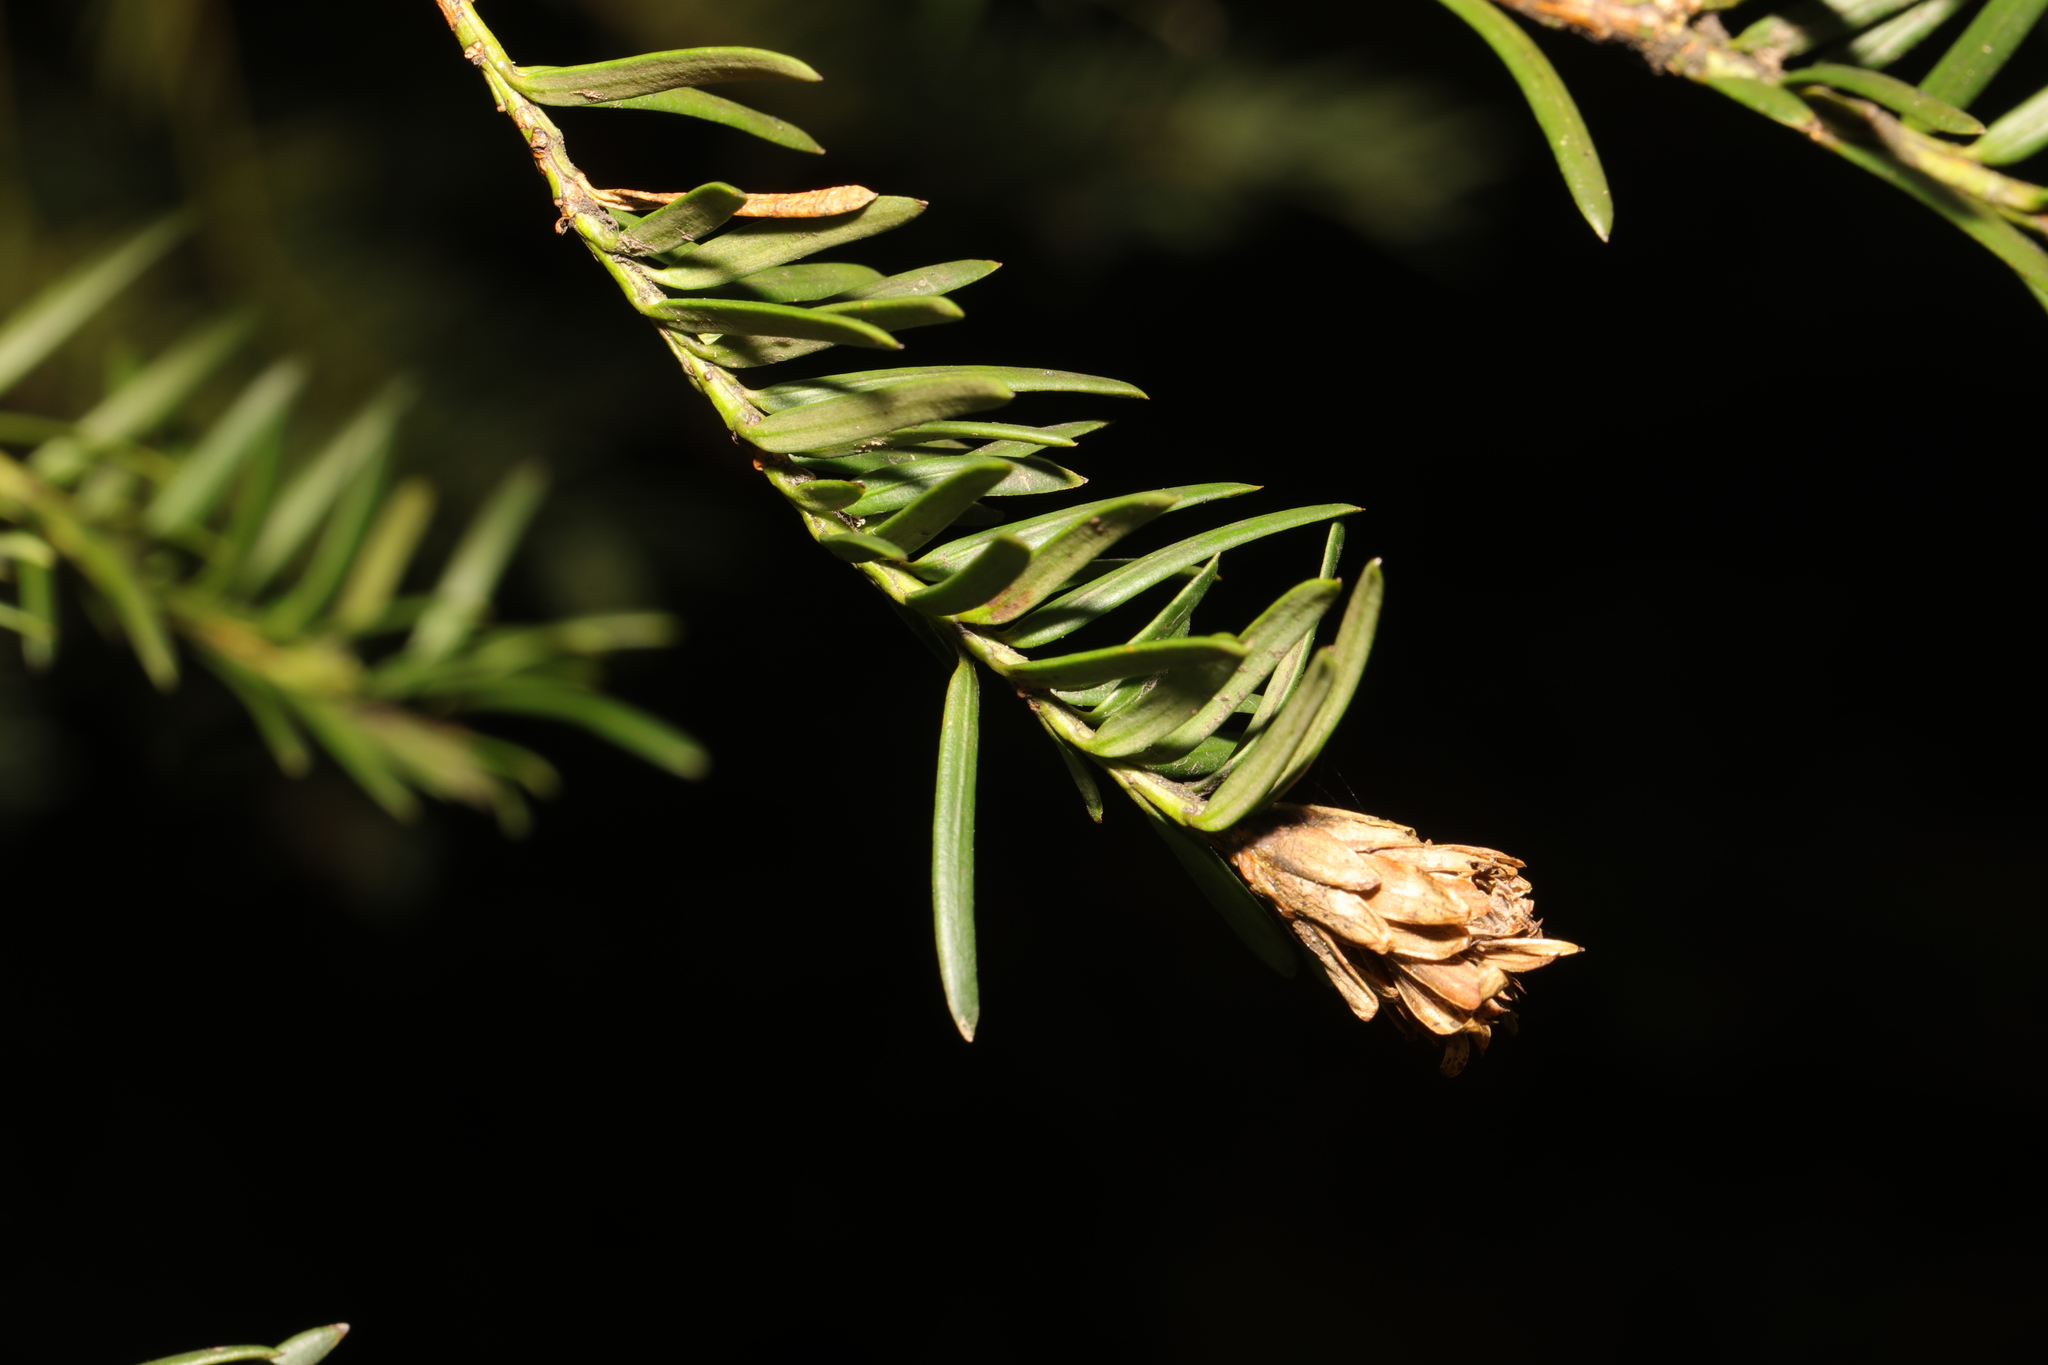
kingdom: Animalia
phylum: Arthropoda
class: Insecta
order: Diptera
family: Cecidomyiidae
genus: Taxomyia
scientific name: Taxomyia taxi
